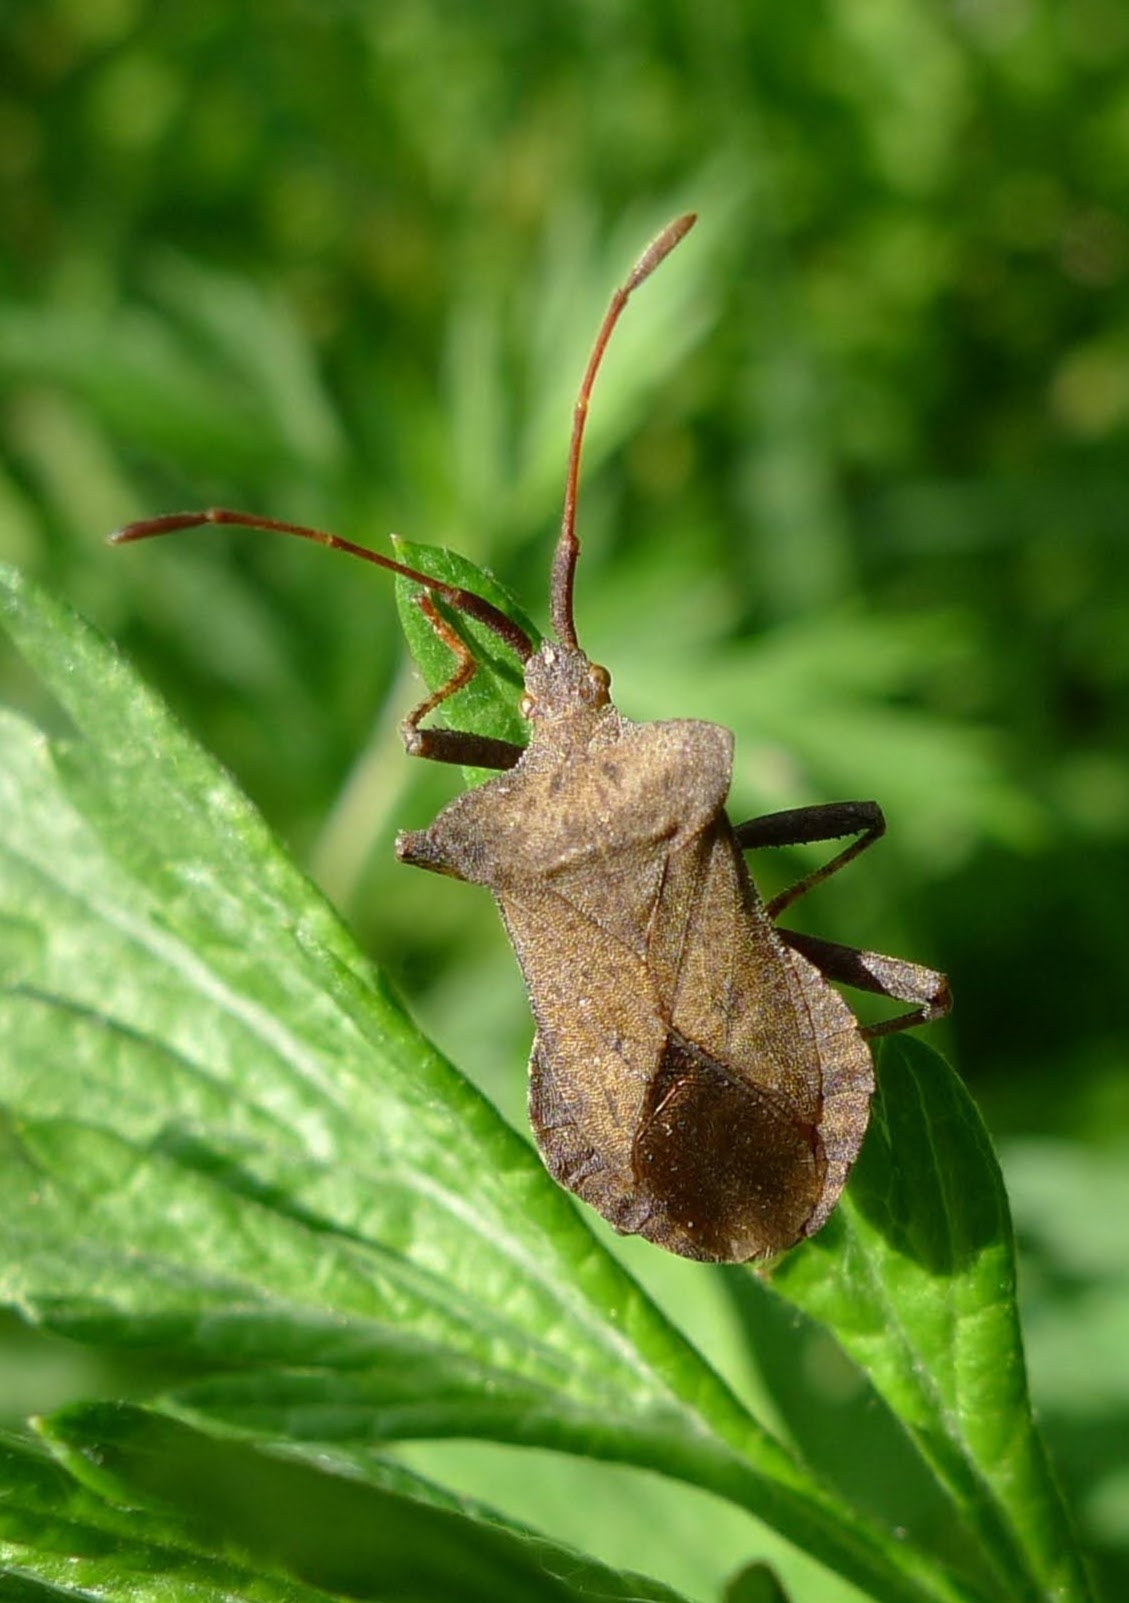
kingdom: Animalia
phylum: Arthropoda
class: Insecta
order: Hemiptera
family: Coreidae
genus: Coreus
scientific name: Coreus marginatus
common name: Dock bug
